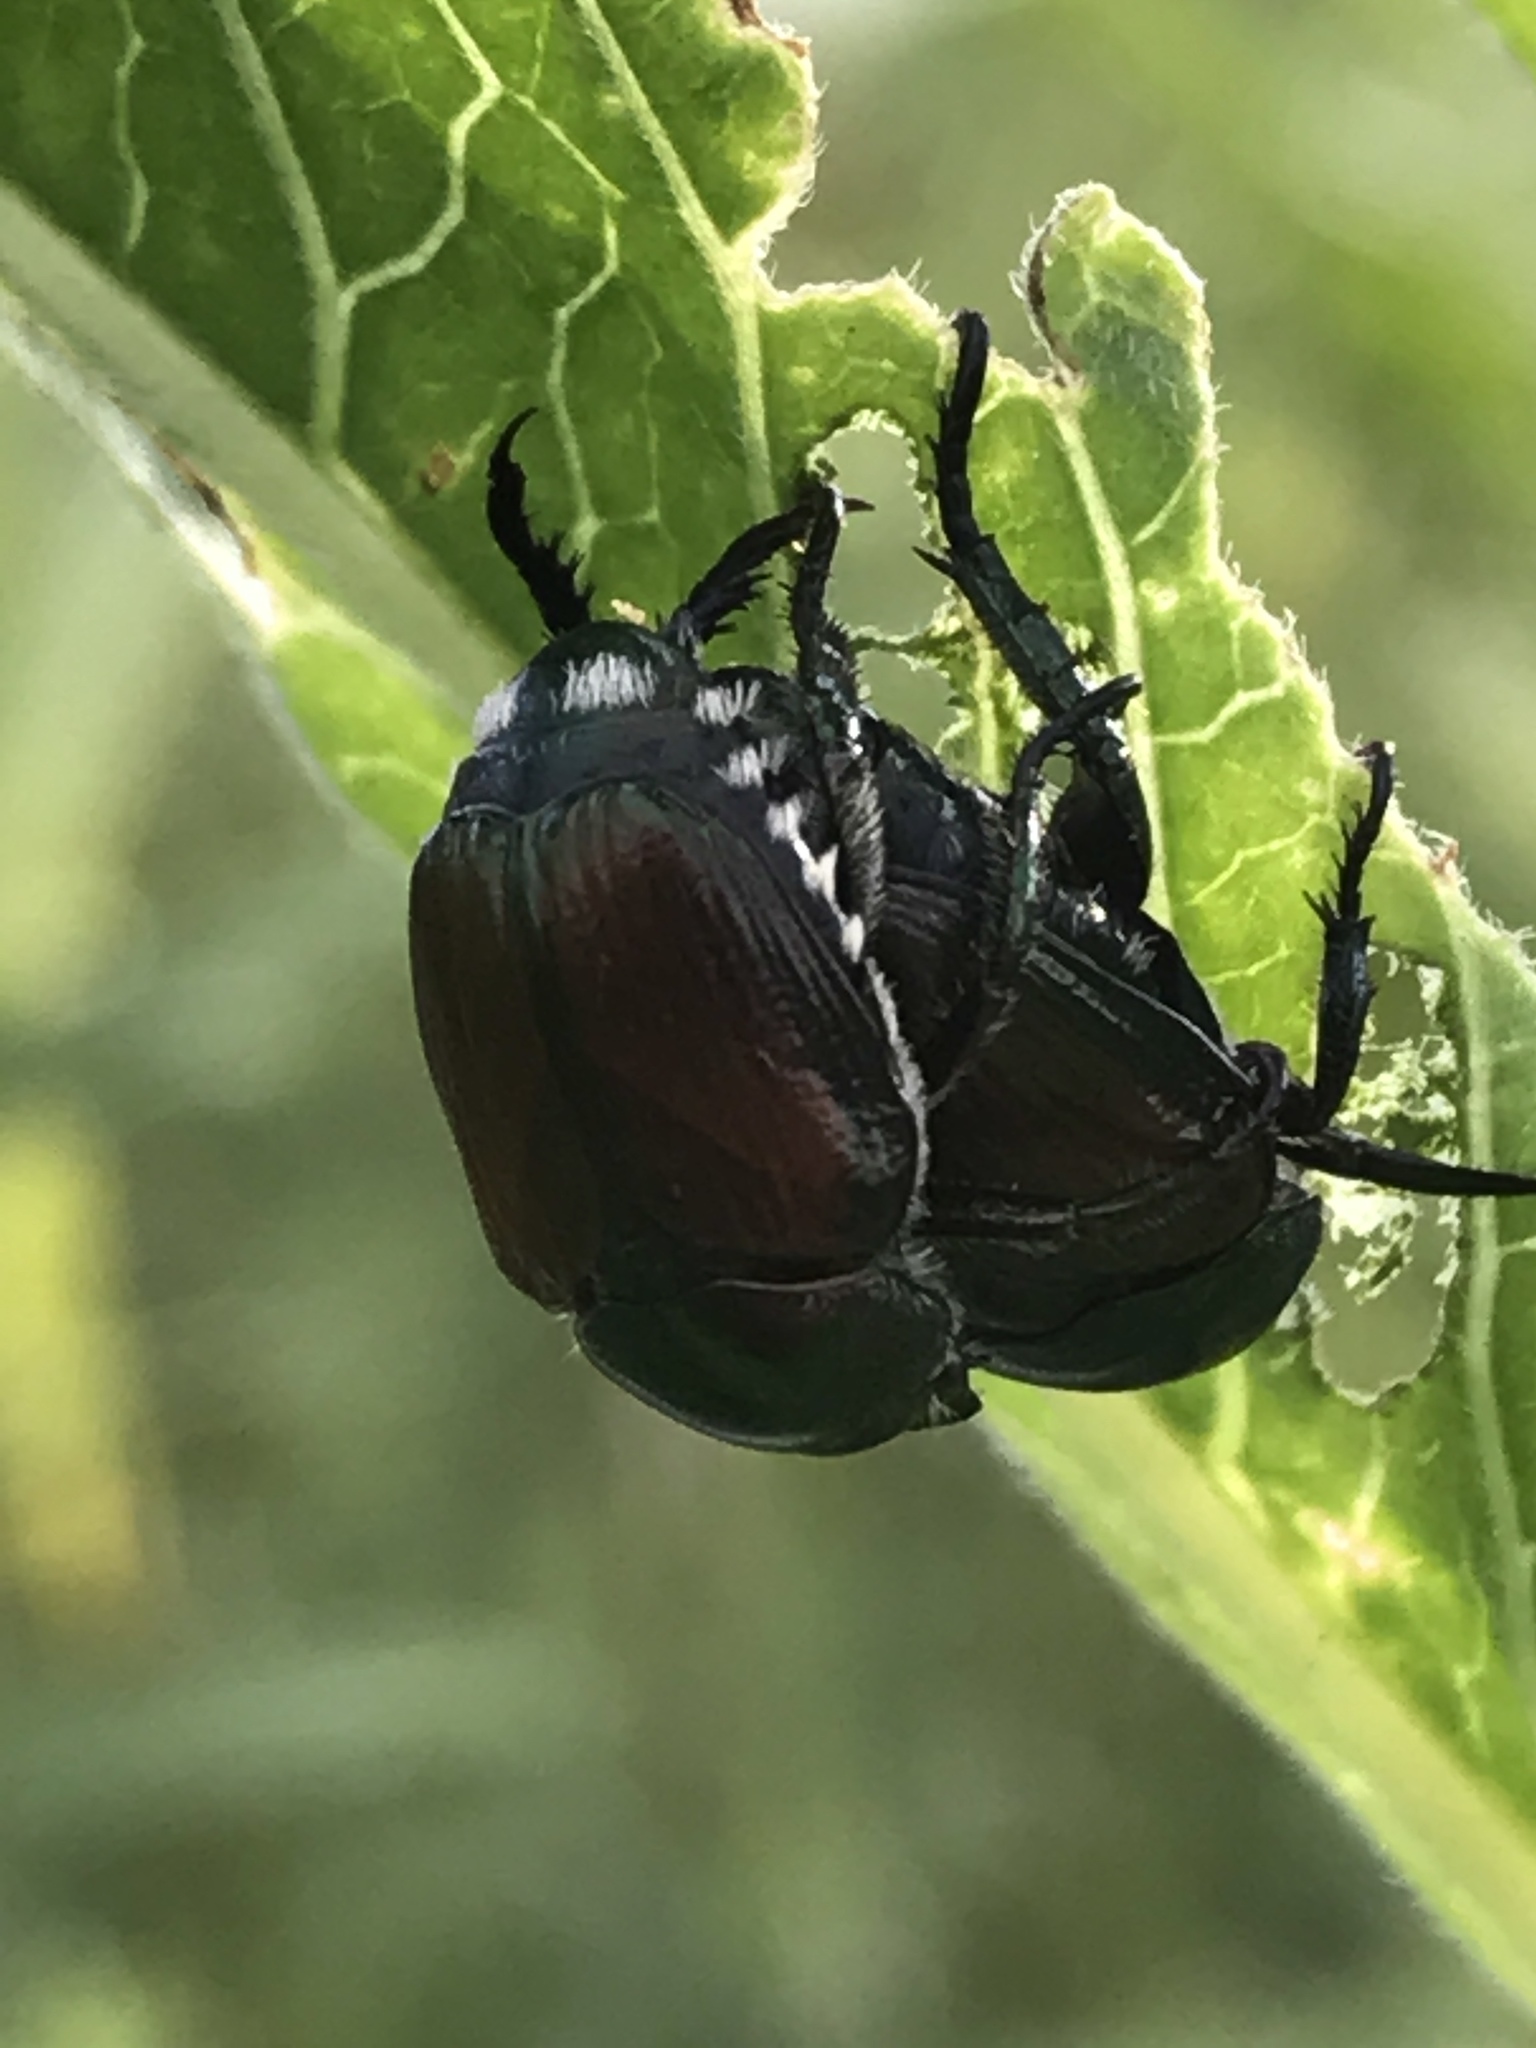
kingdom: Animalia
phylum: Arthropoda
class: Insecta
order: Coleoptera
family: Scarabaeidae
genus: Popillia
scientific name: Popillia japonica
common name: Japanese beetle
